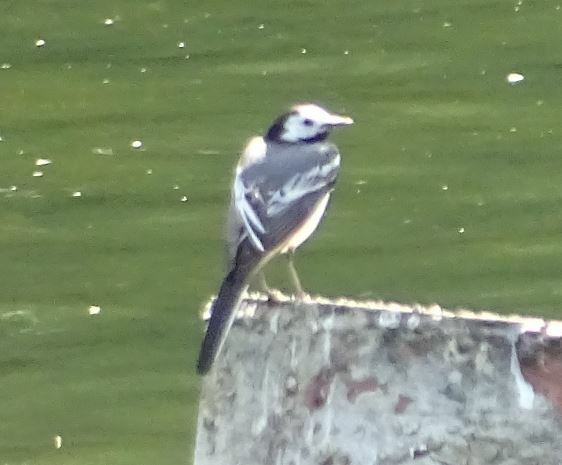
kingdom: Animalia
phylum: Chordata
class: Aves
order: Passeriformes
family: Motacillidae
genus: Motacilla
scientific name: Motacilla alba
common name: White wagtail
